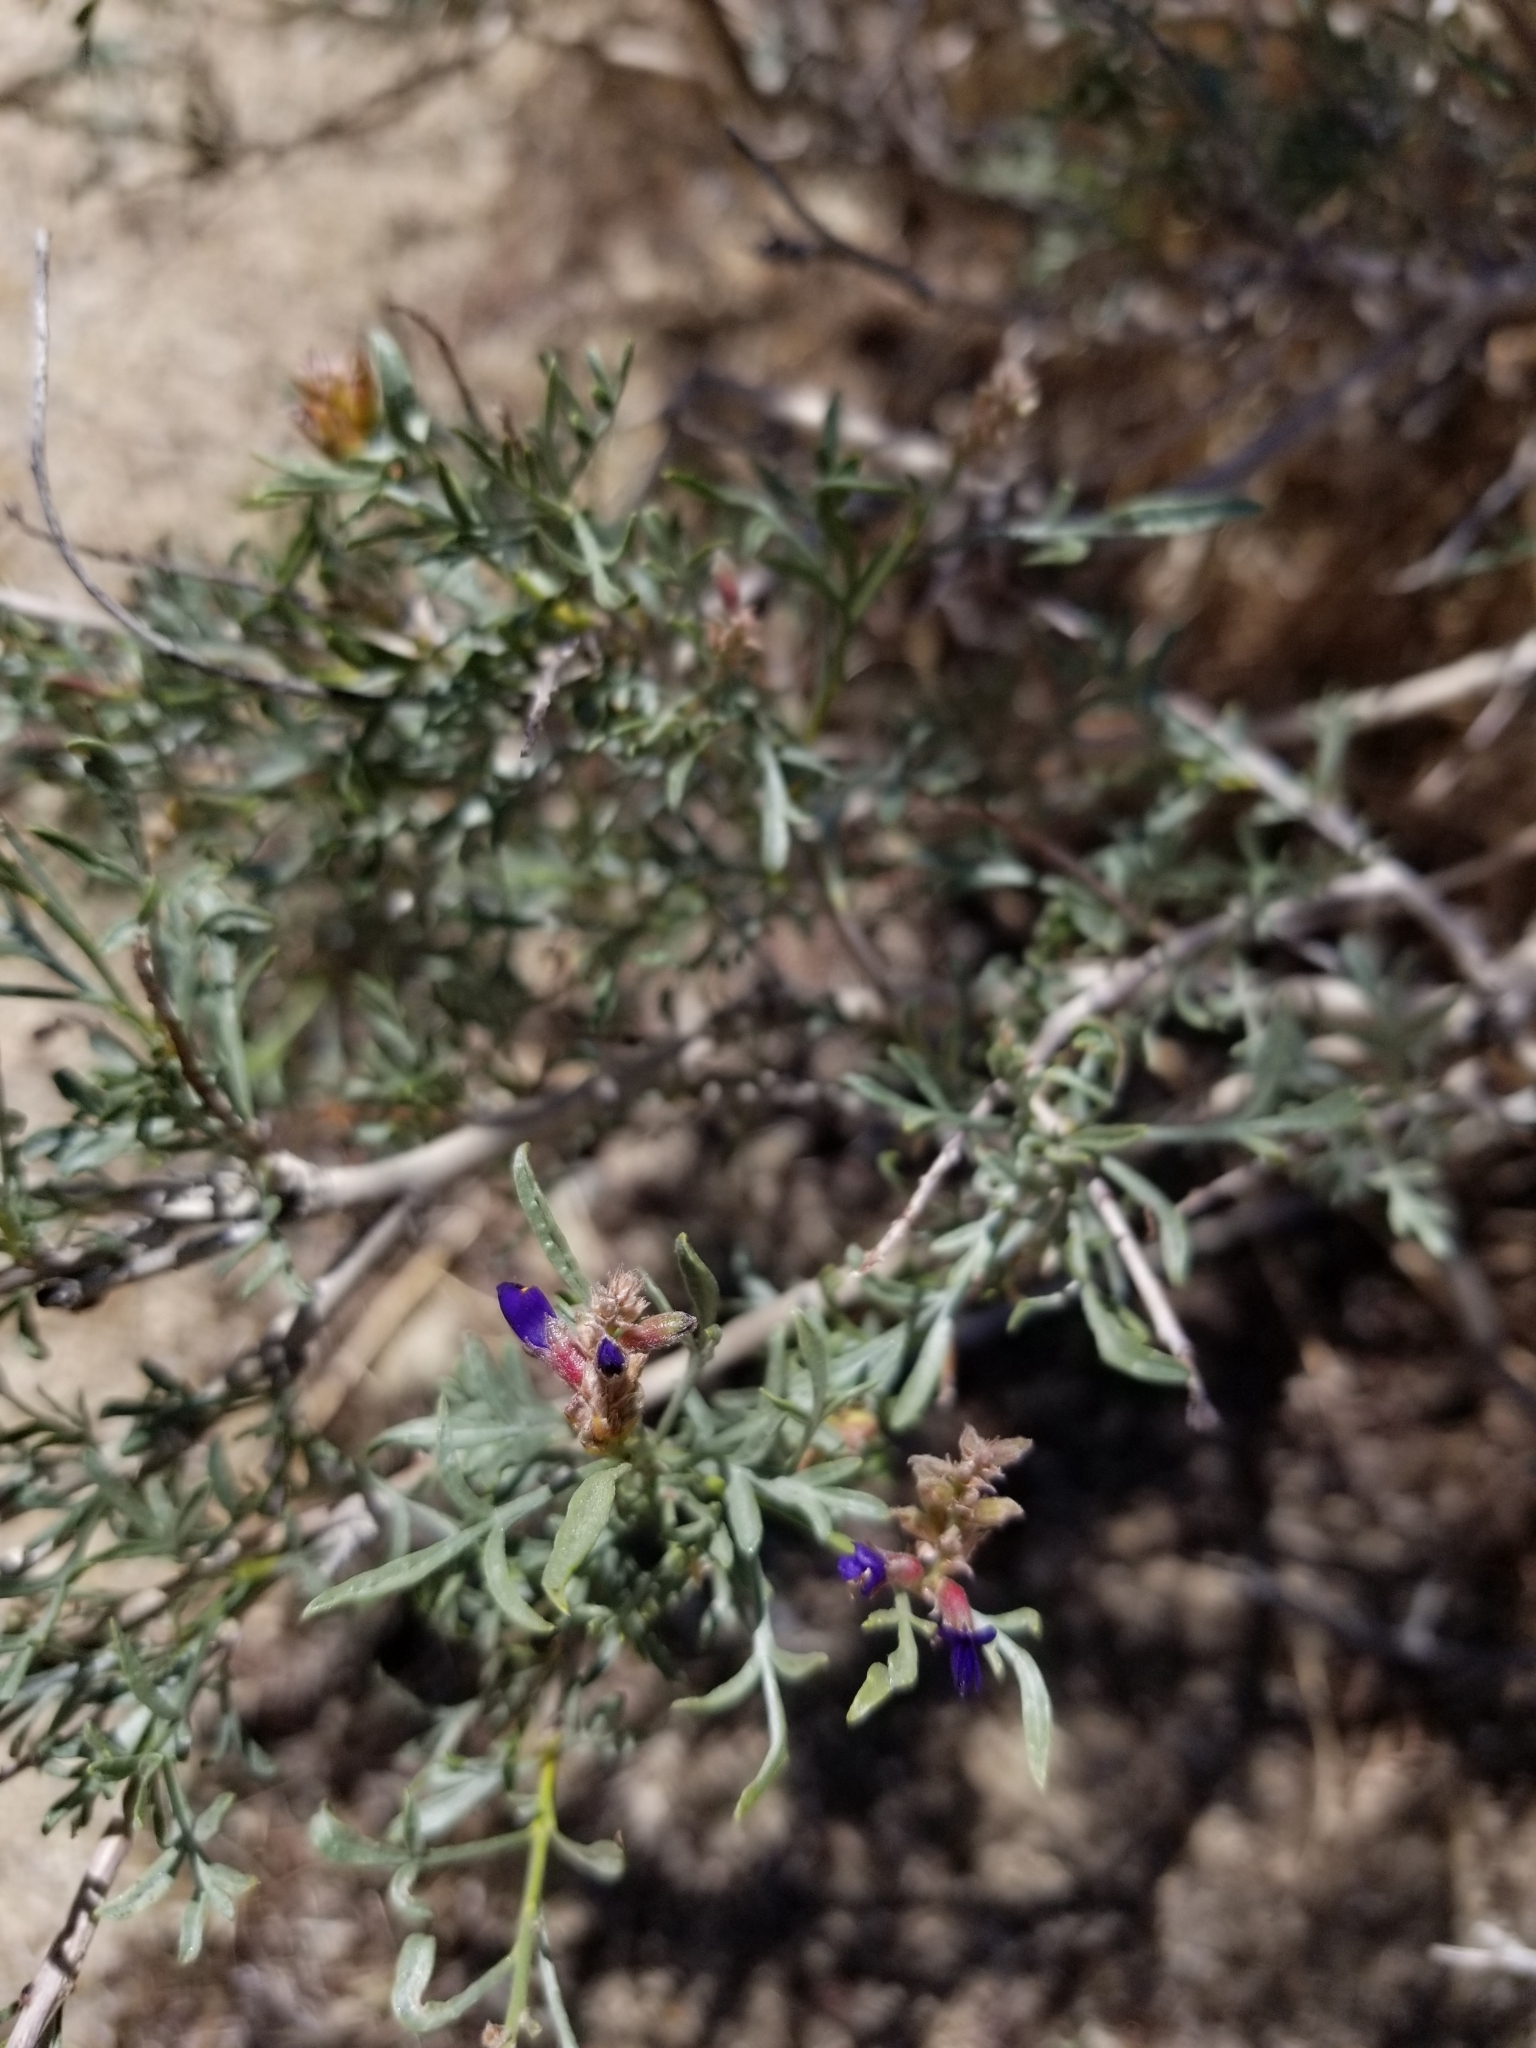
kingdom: Plantae
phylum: Tracheophyta
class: Magnoliopsida
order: Fabales
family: Fabaceae
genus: Psorothamnus
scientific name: Psorothamnus arborescens
